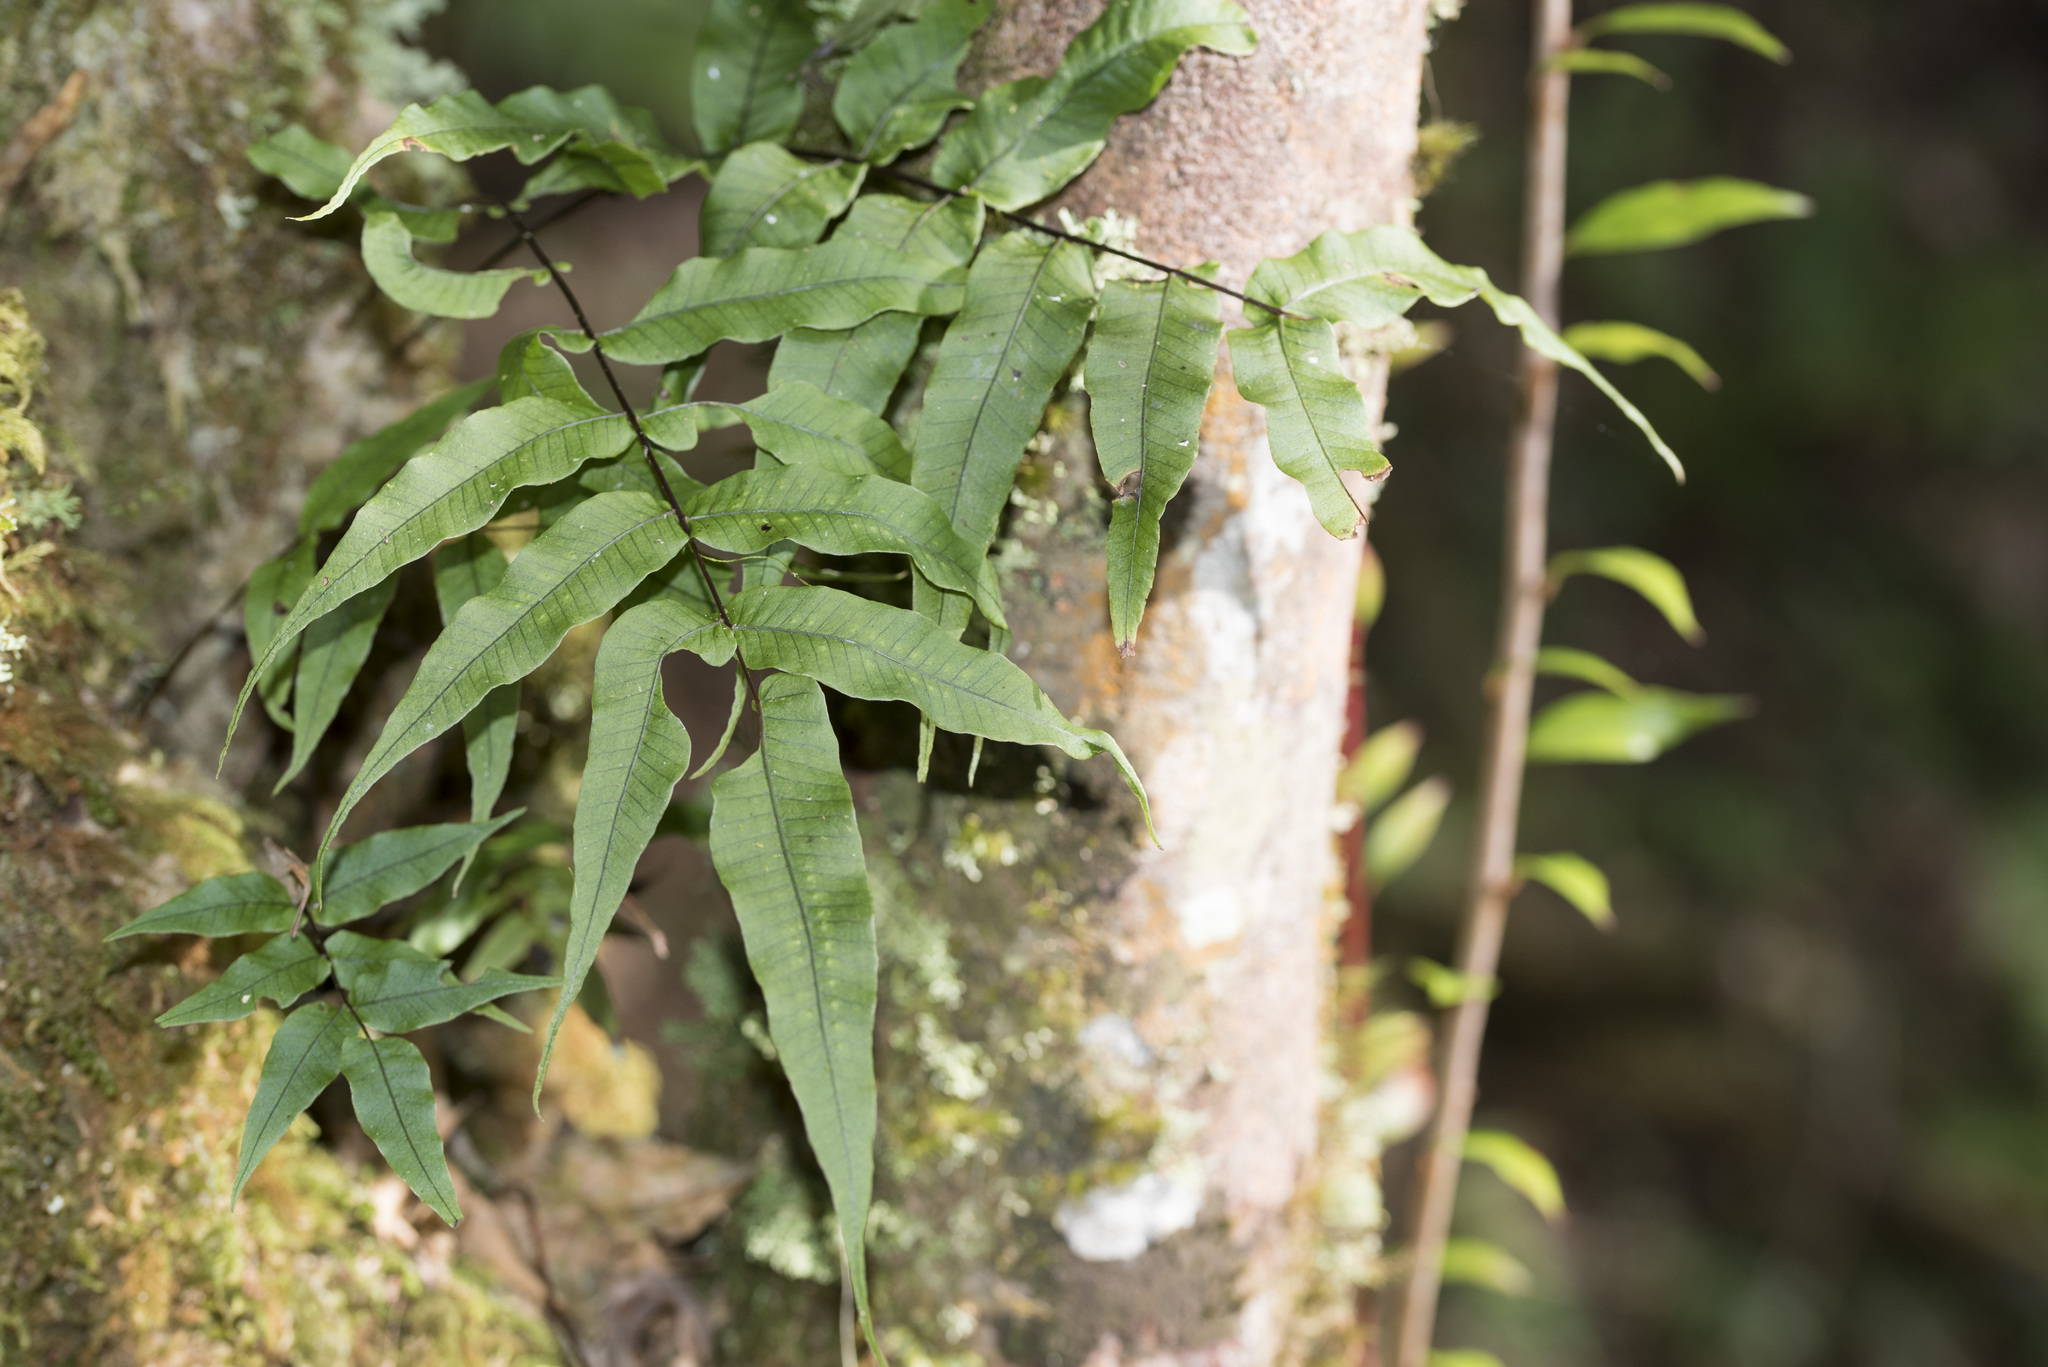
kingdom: Plantae
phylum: Tracheophyta
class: Polypodiopsida
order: Polypodiales
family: Polypodiaceae
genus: Selliguea
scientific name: Selliguea lehmannii
